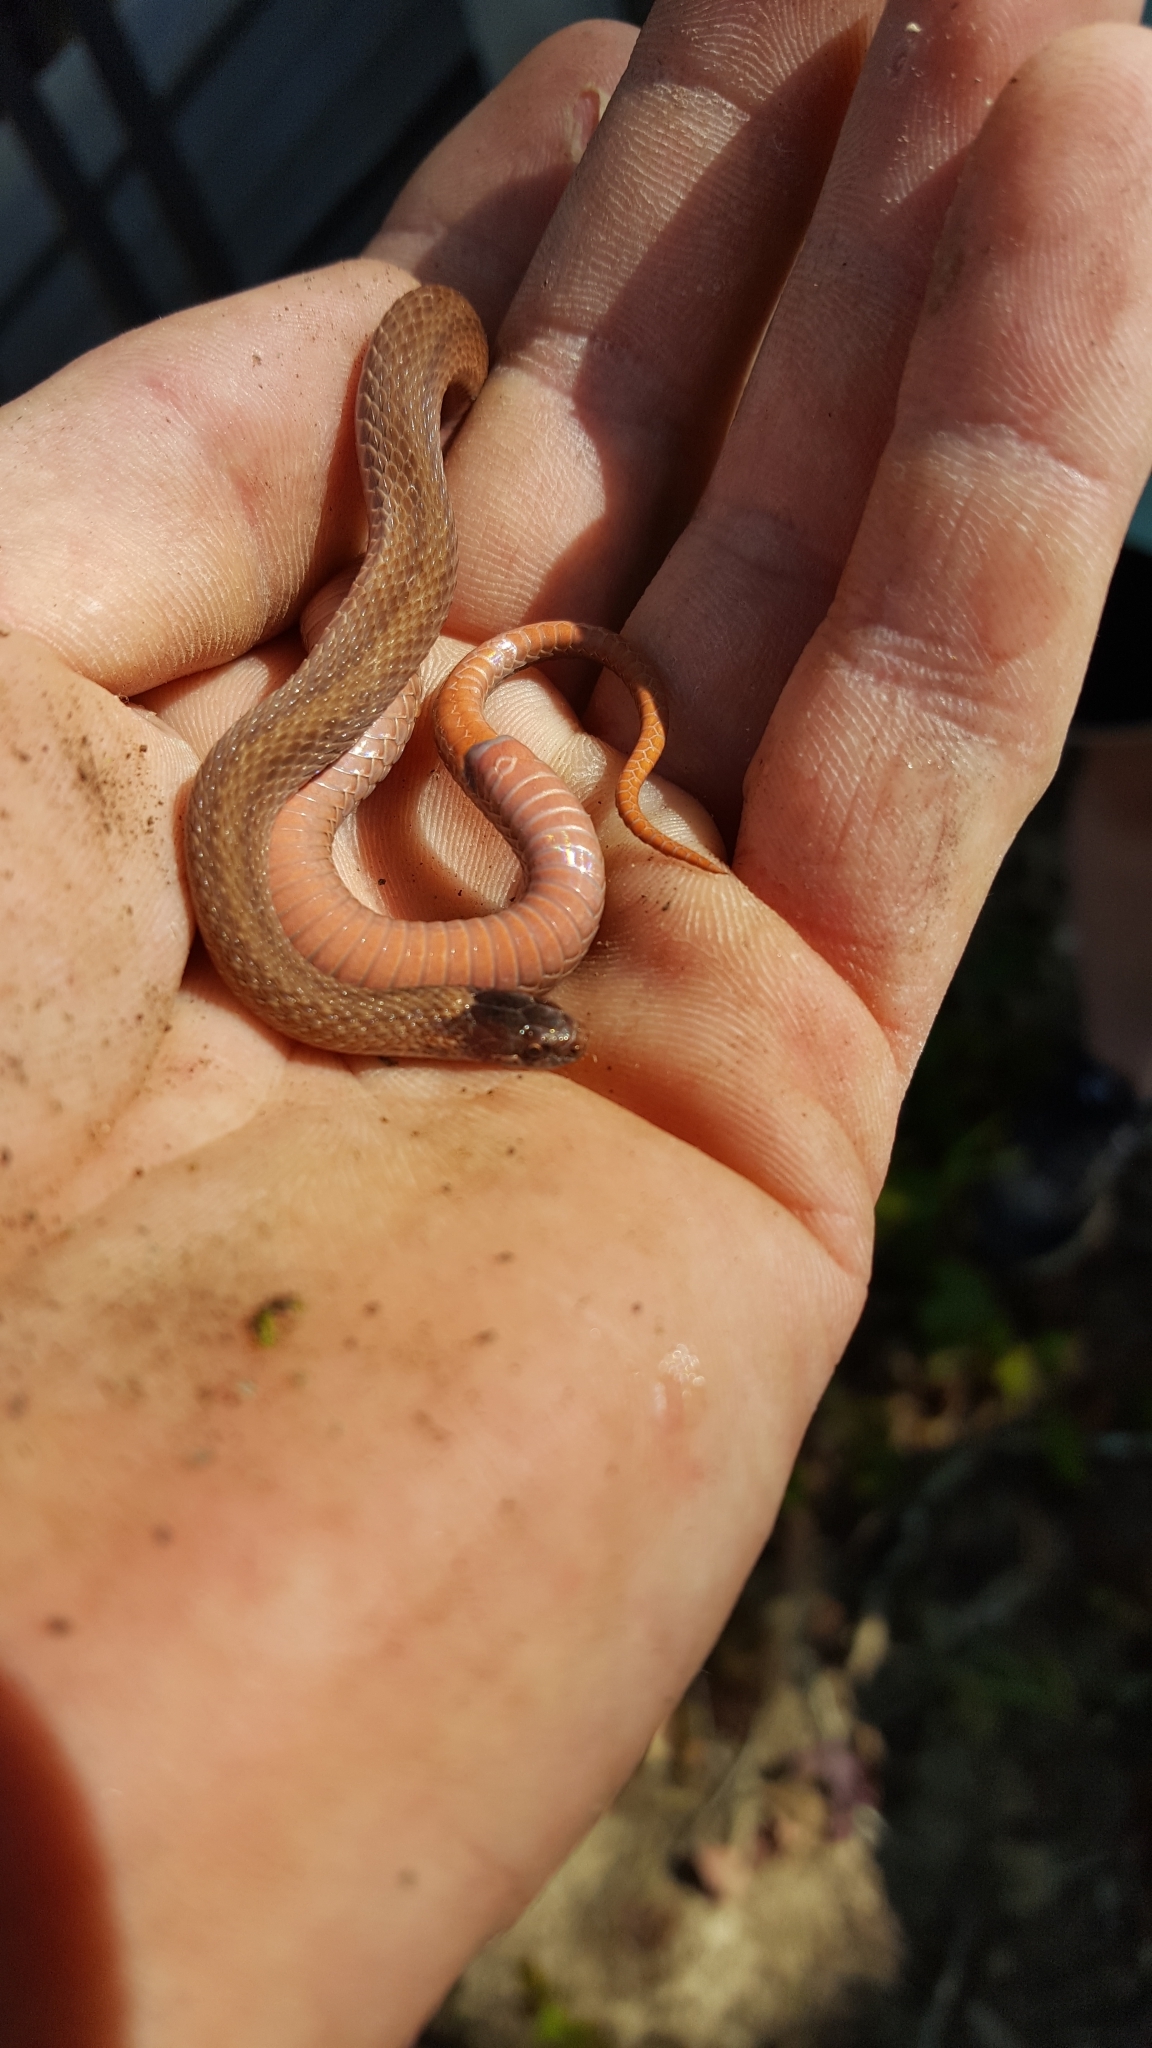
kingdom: Animalia
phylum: Chordata
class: Squamata
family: Colubridae
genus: Storeria
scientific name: Storeria occipitomaculata
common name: Redbelly snake
